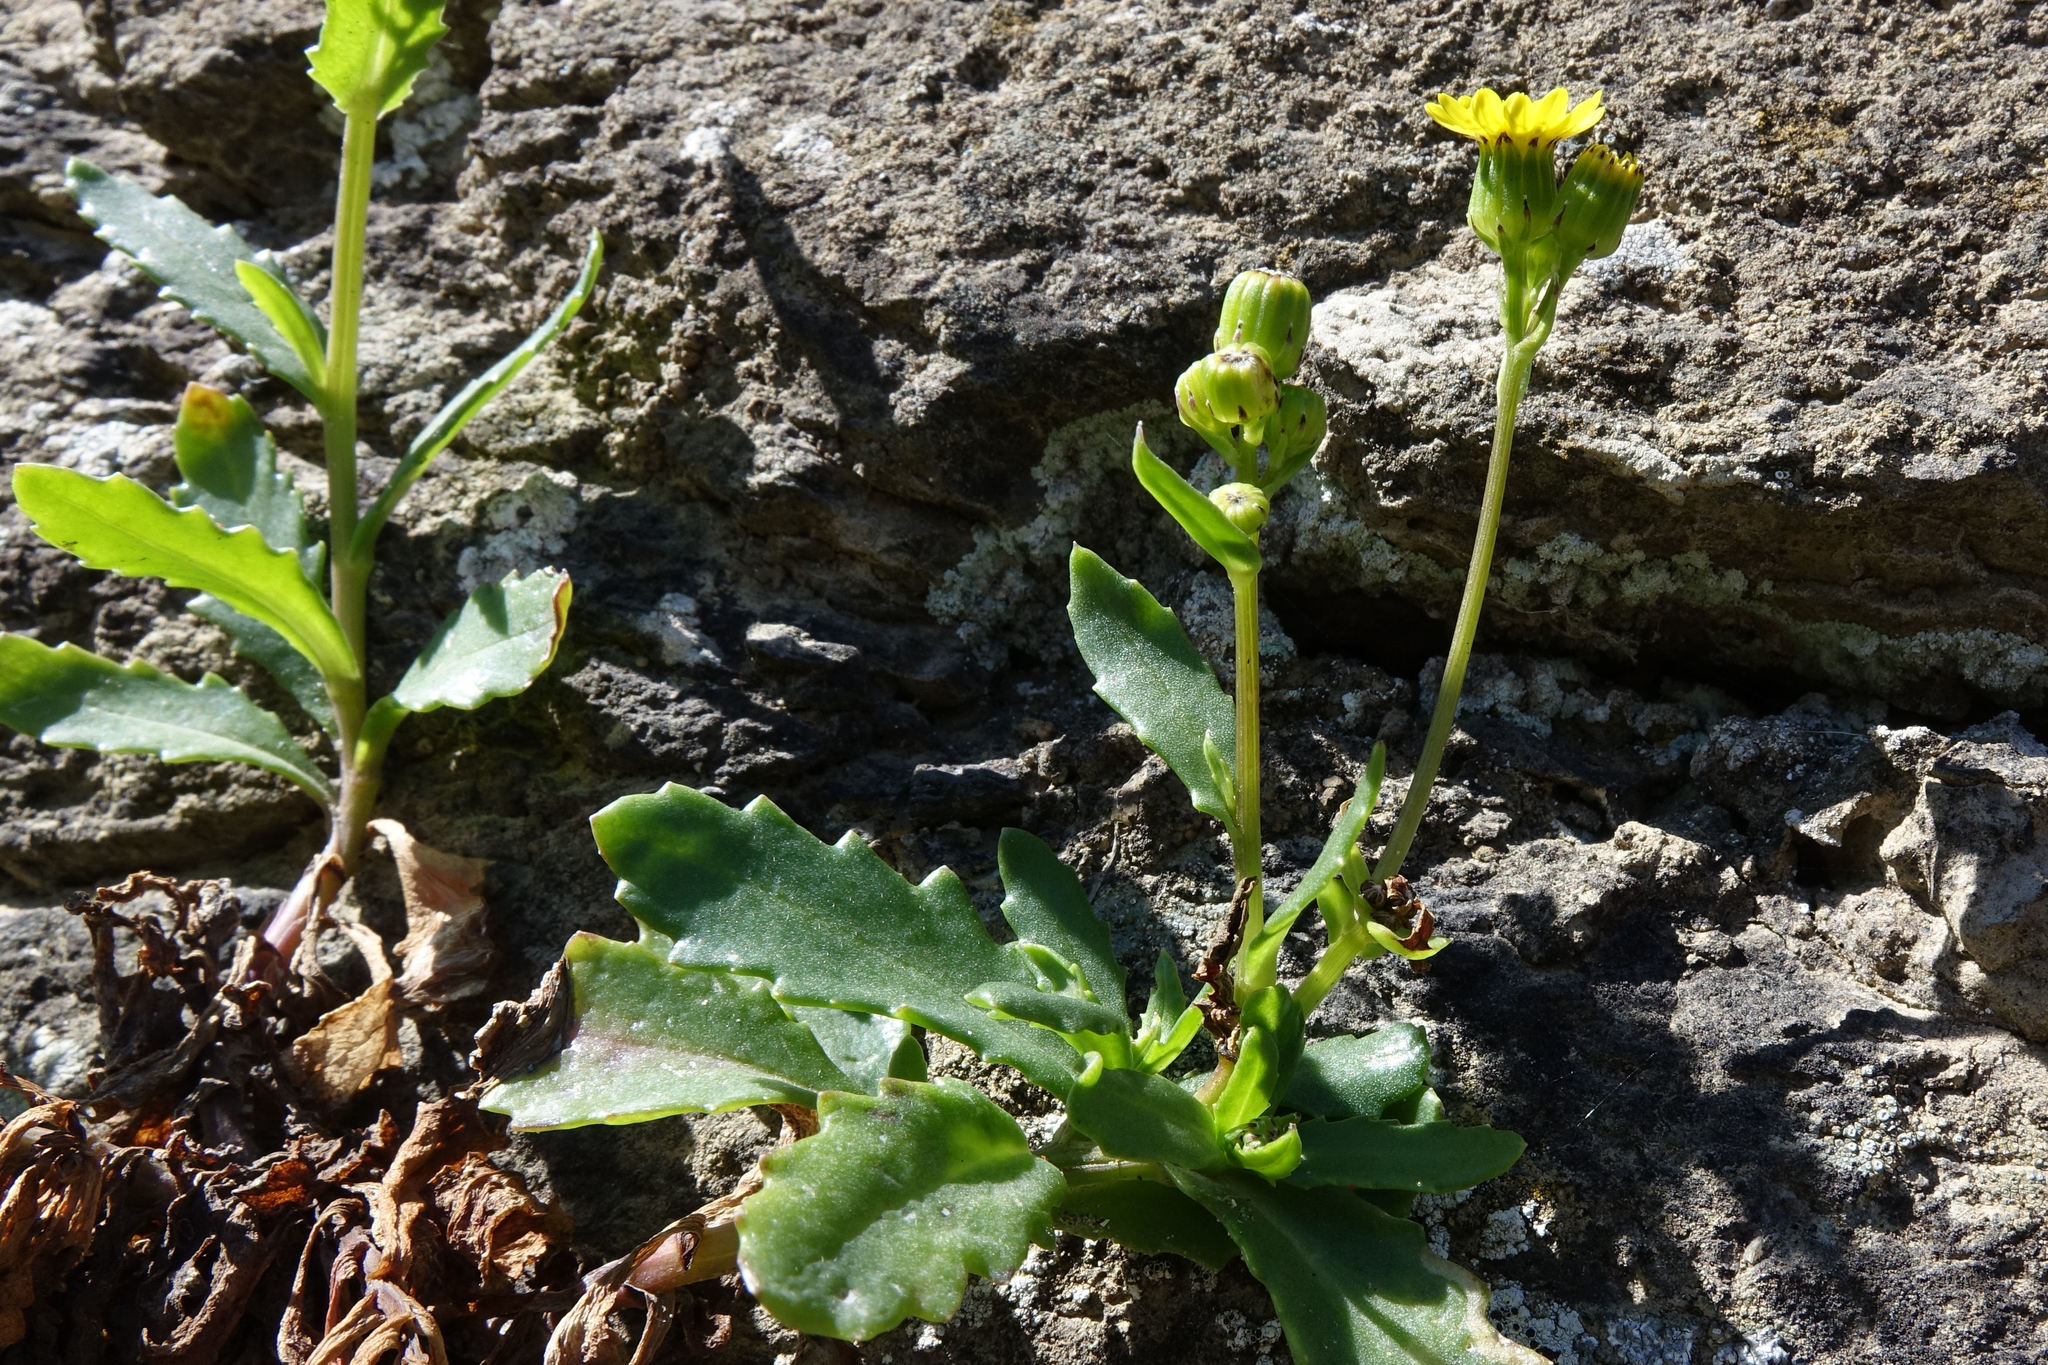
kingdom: Plantae
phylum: Tracheophyta
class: Magnoliopsida
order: Asterales
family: Asteraceae
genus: Senecio
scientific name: Senecio matatini
